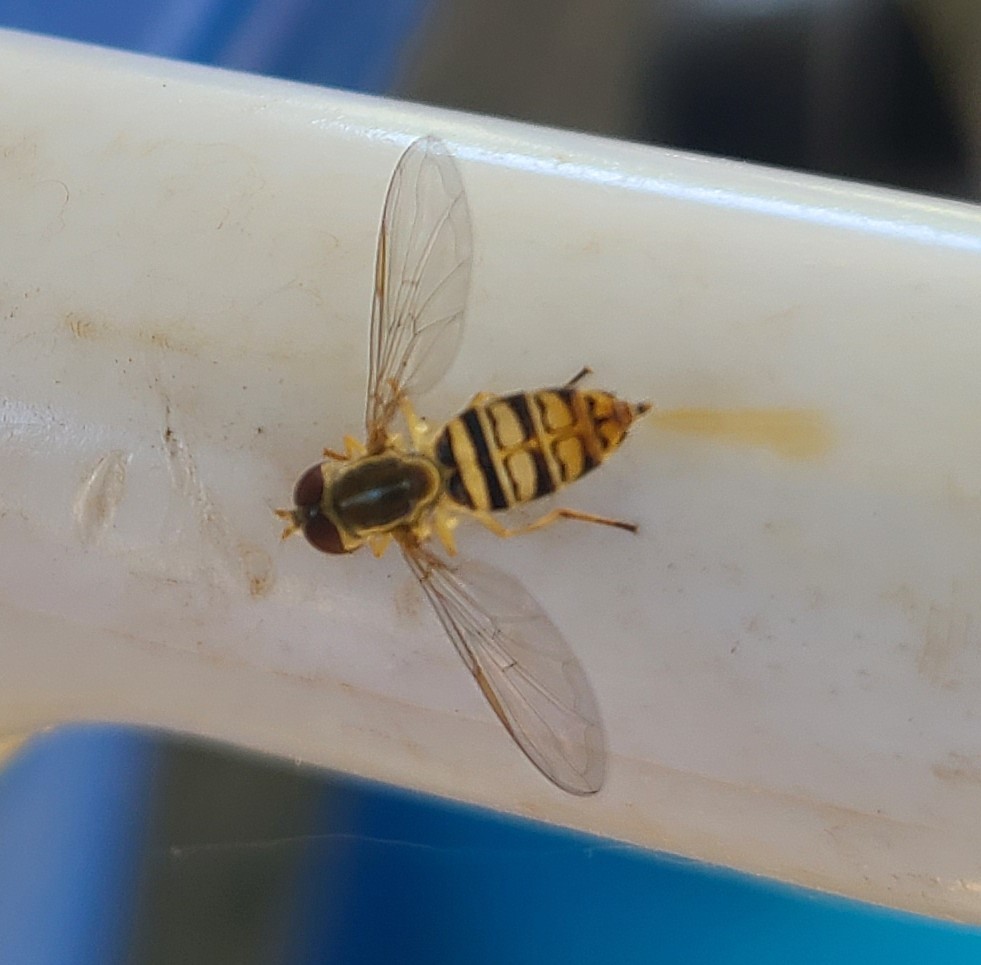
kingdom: Animalia
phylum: Arthropoda
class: Insecta
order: Diptera
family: Syrphidae
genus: Toxomerus
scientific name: Toxomerus politus
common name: Maize calligrapher
